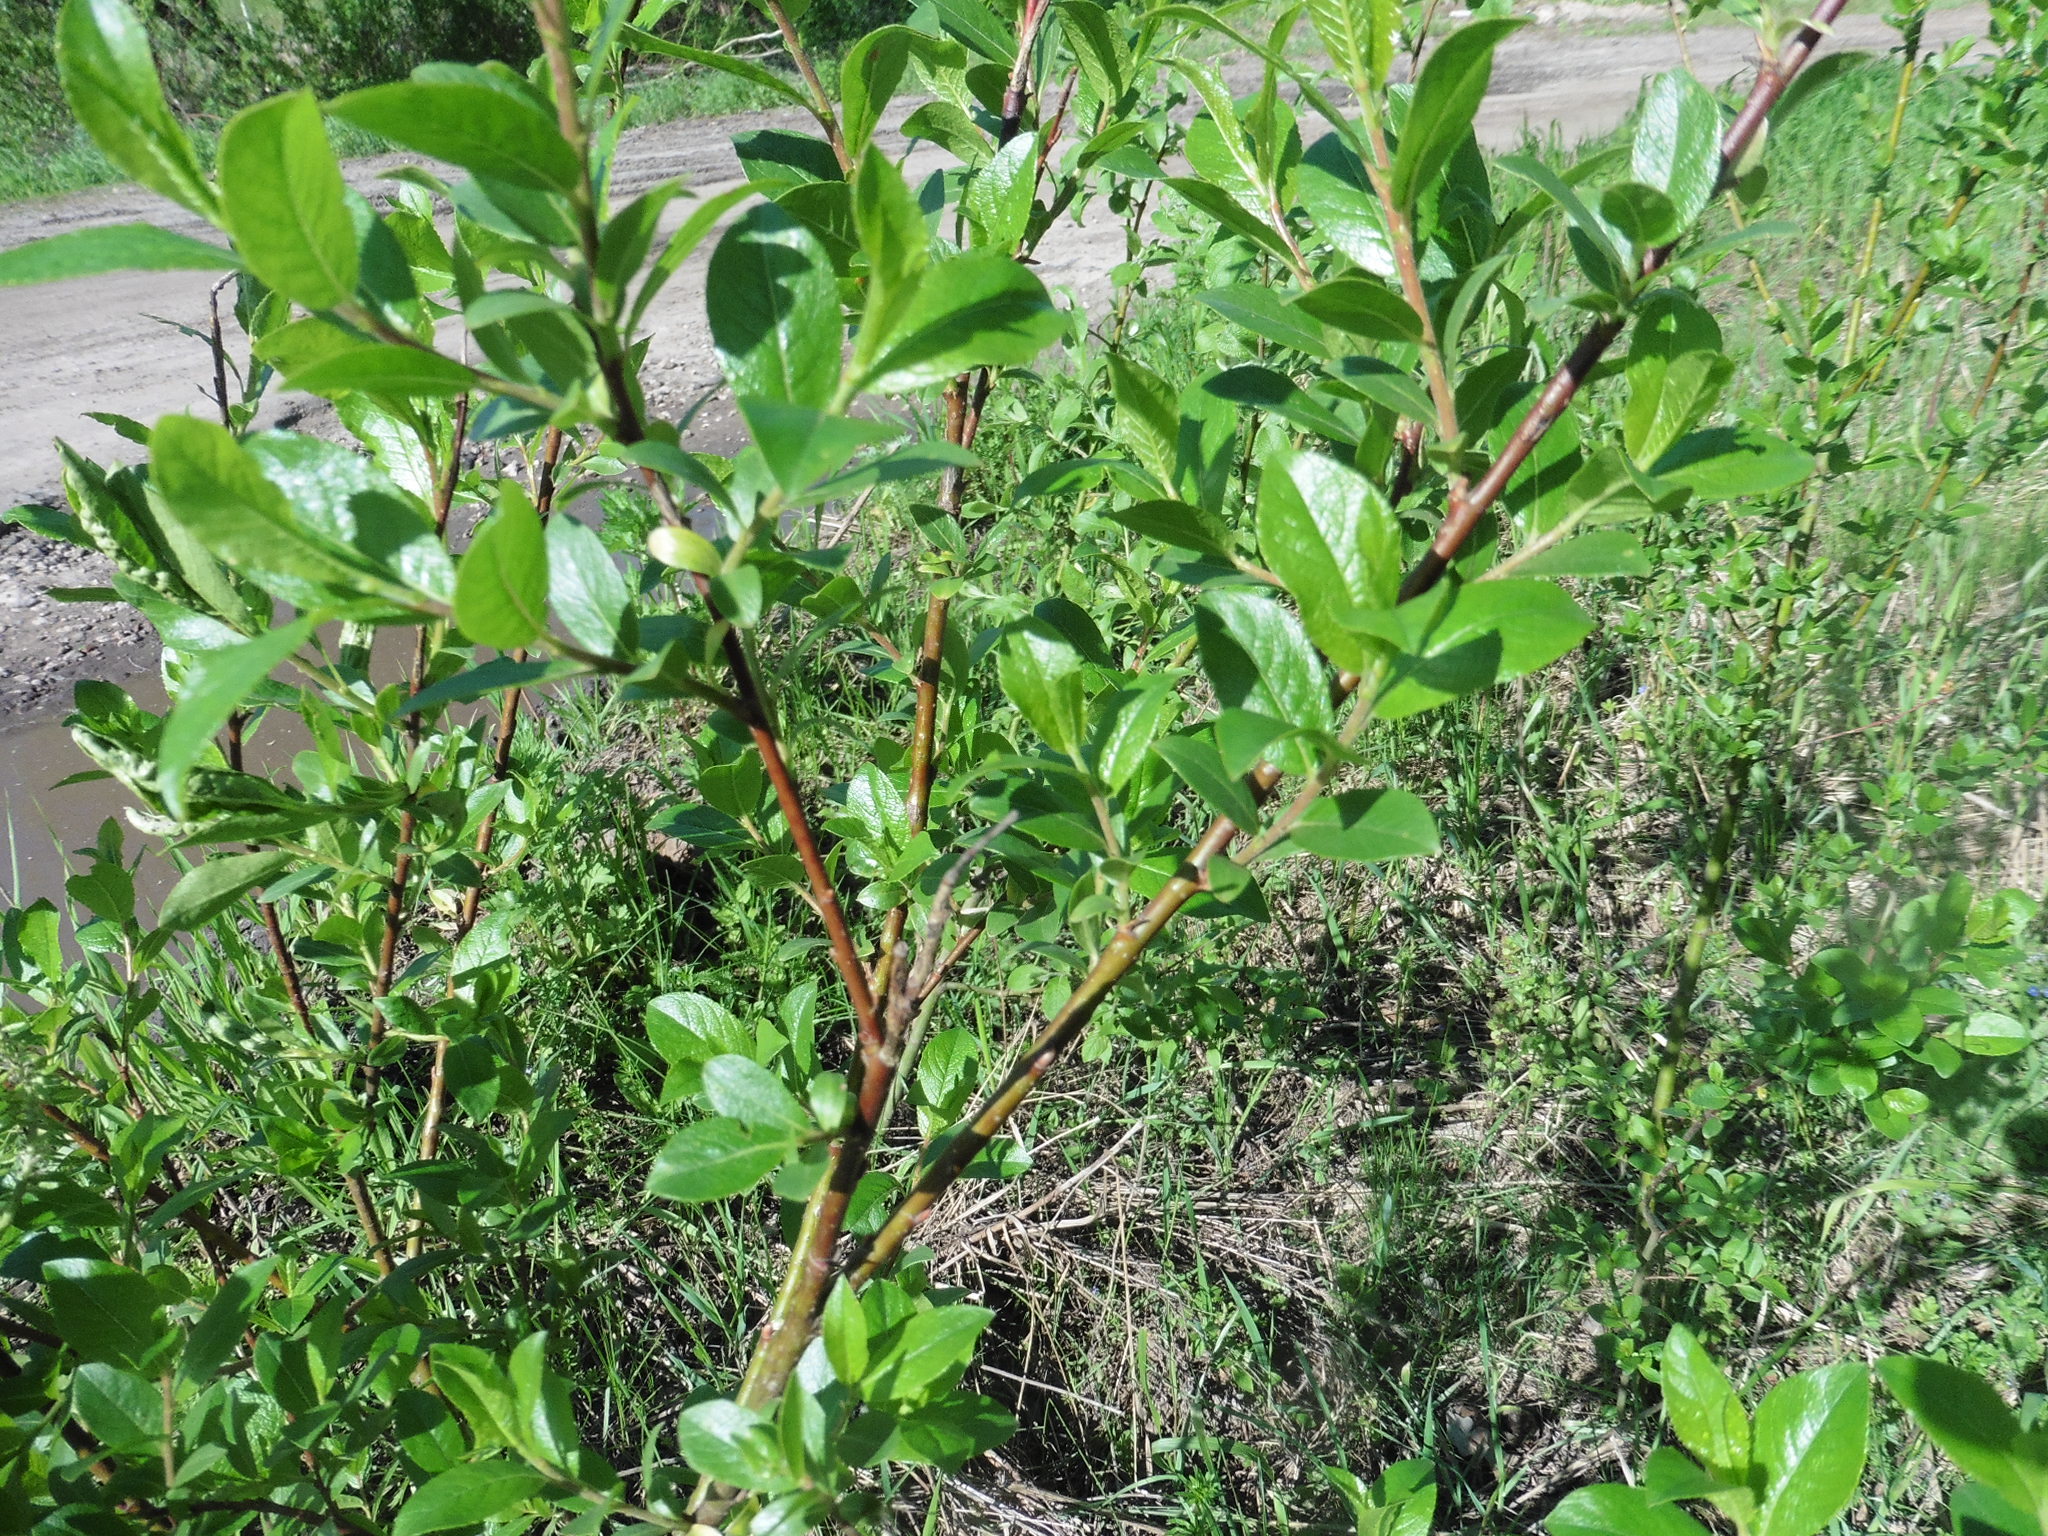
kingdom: Plantae
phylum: Tracheophyta
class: Magnoliopsida
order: Malpighiales
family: Salicaceae
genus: Salix
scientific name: Salix myrsinifolia
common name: Dark-leaved willow
